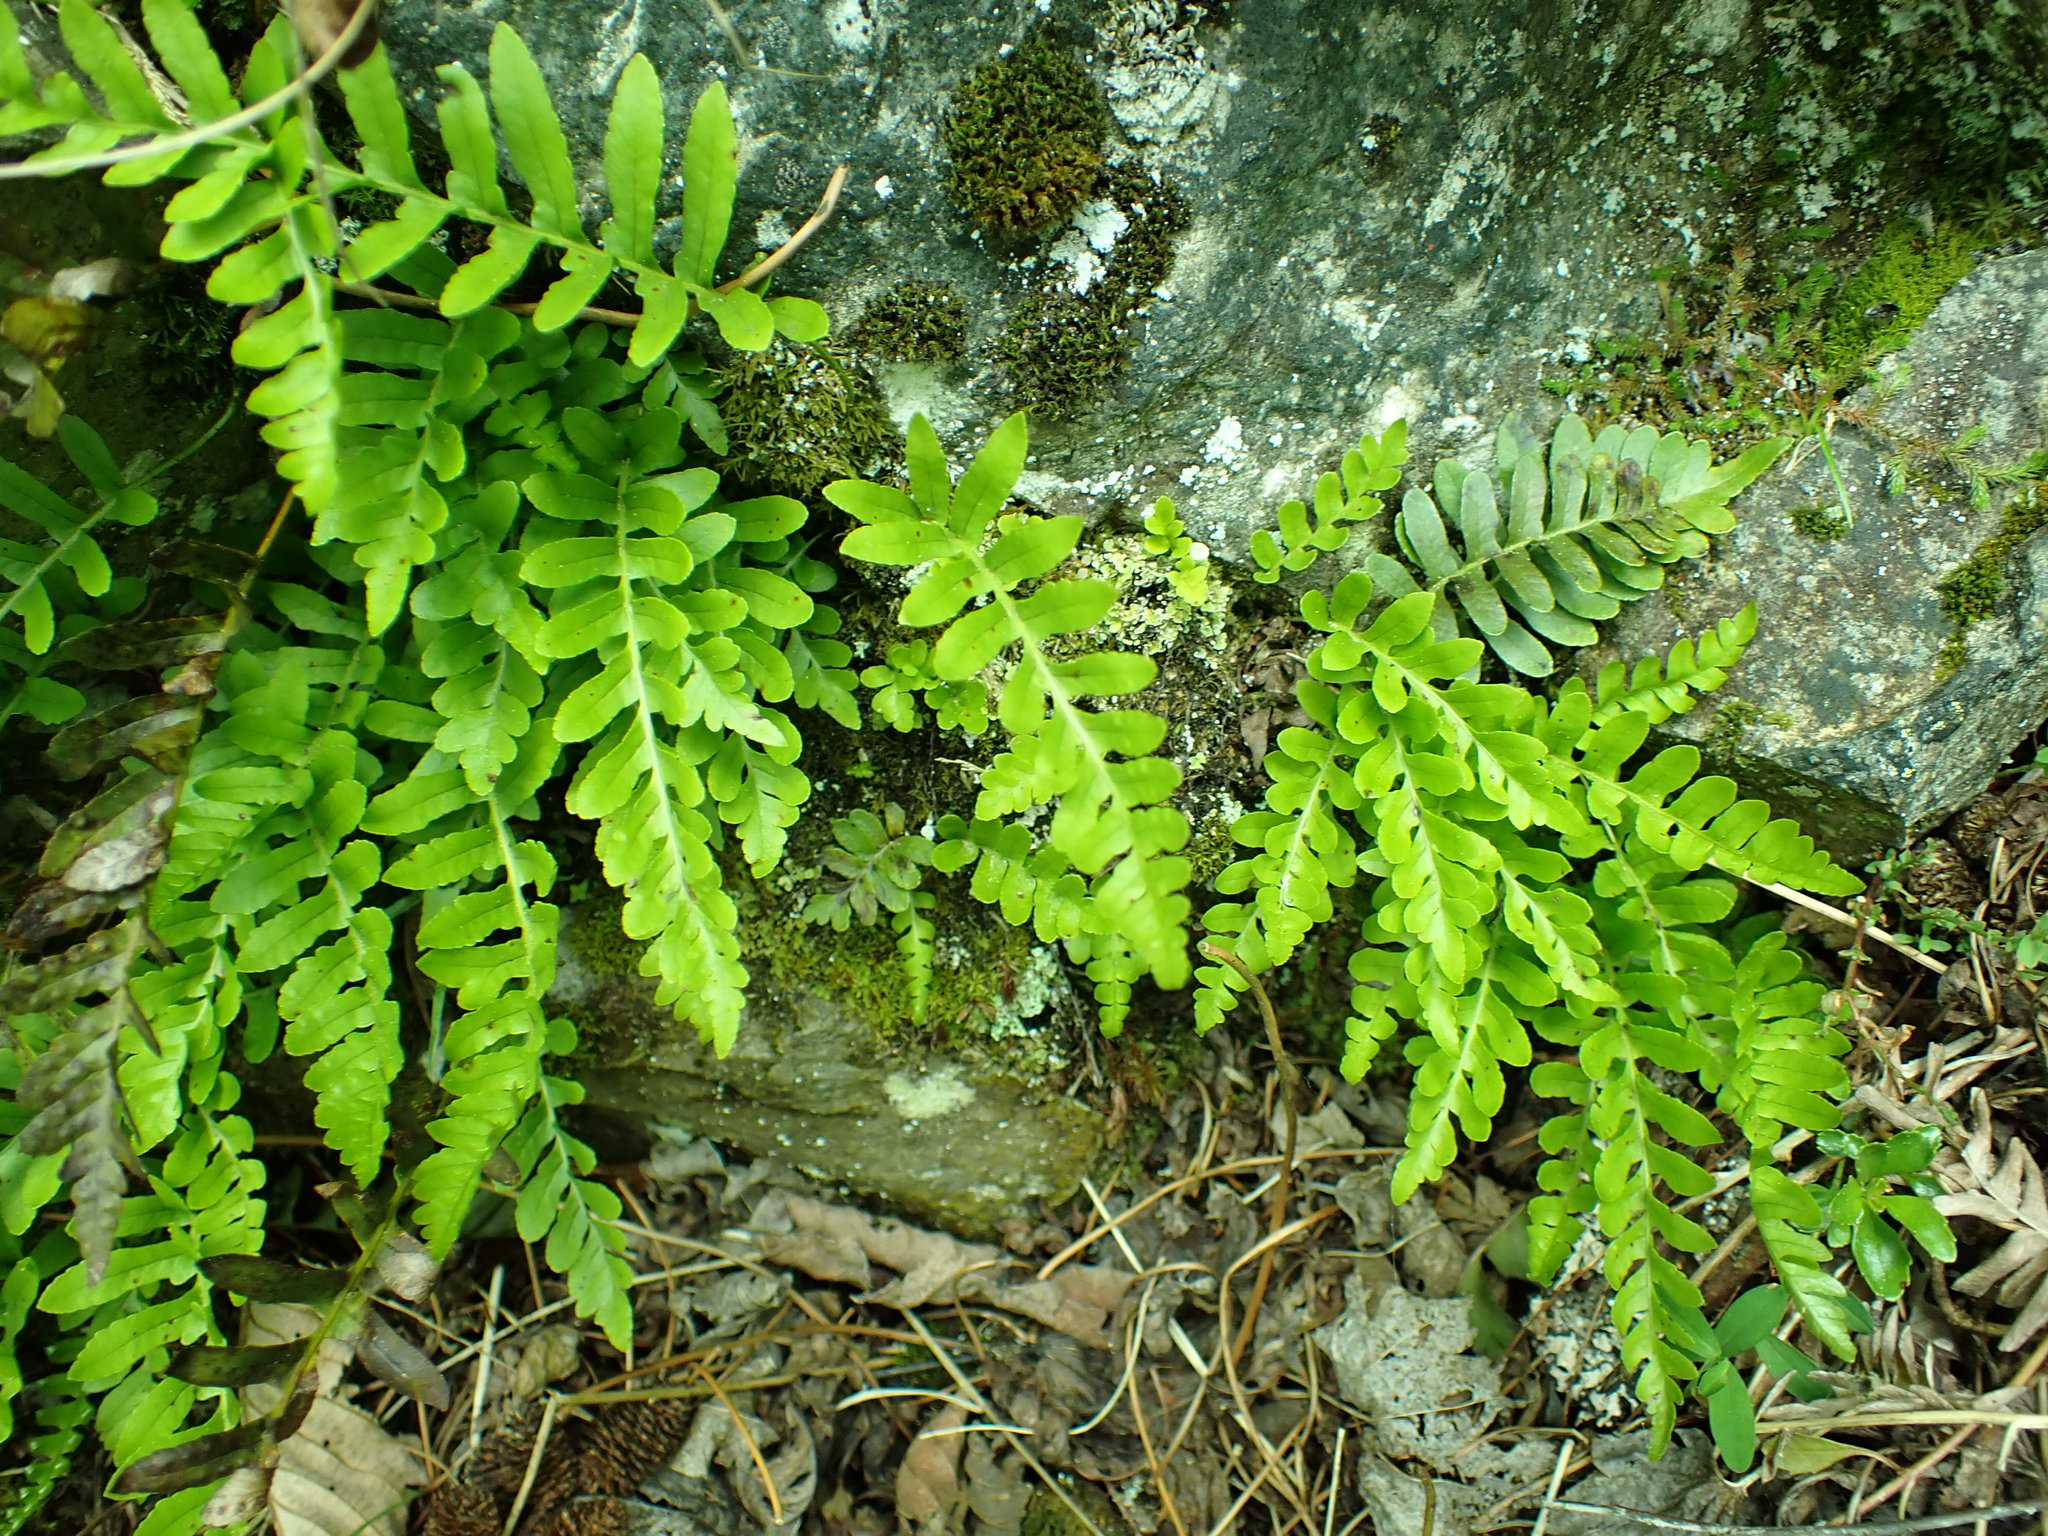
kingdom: Plantae
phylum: Tracheophyta
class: Polypodiopsida
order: Polypodiales
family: Polypodiaceae
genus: Polypodium
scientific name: Polypodium amorphum
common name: Pacific polypody
